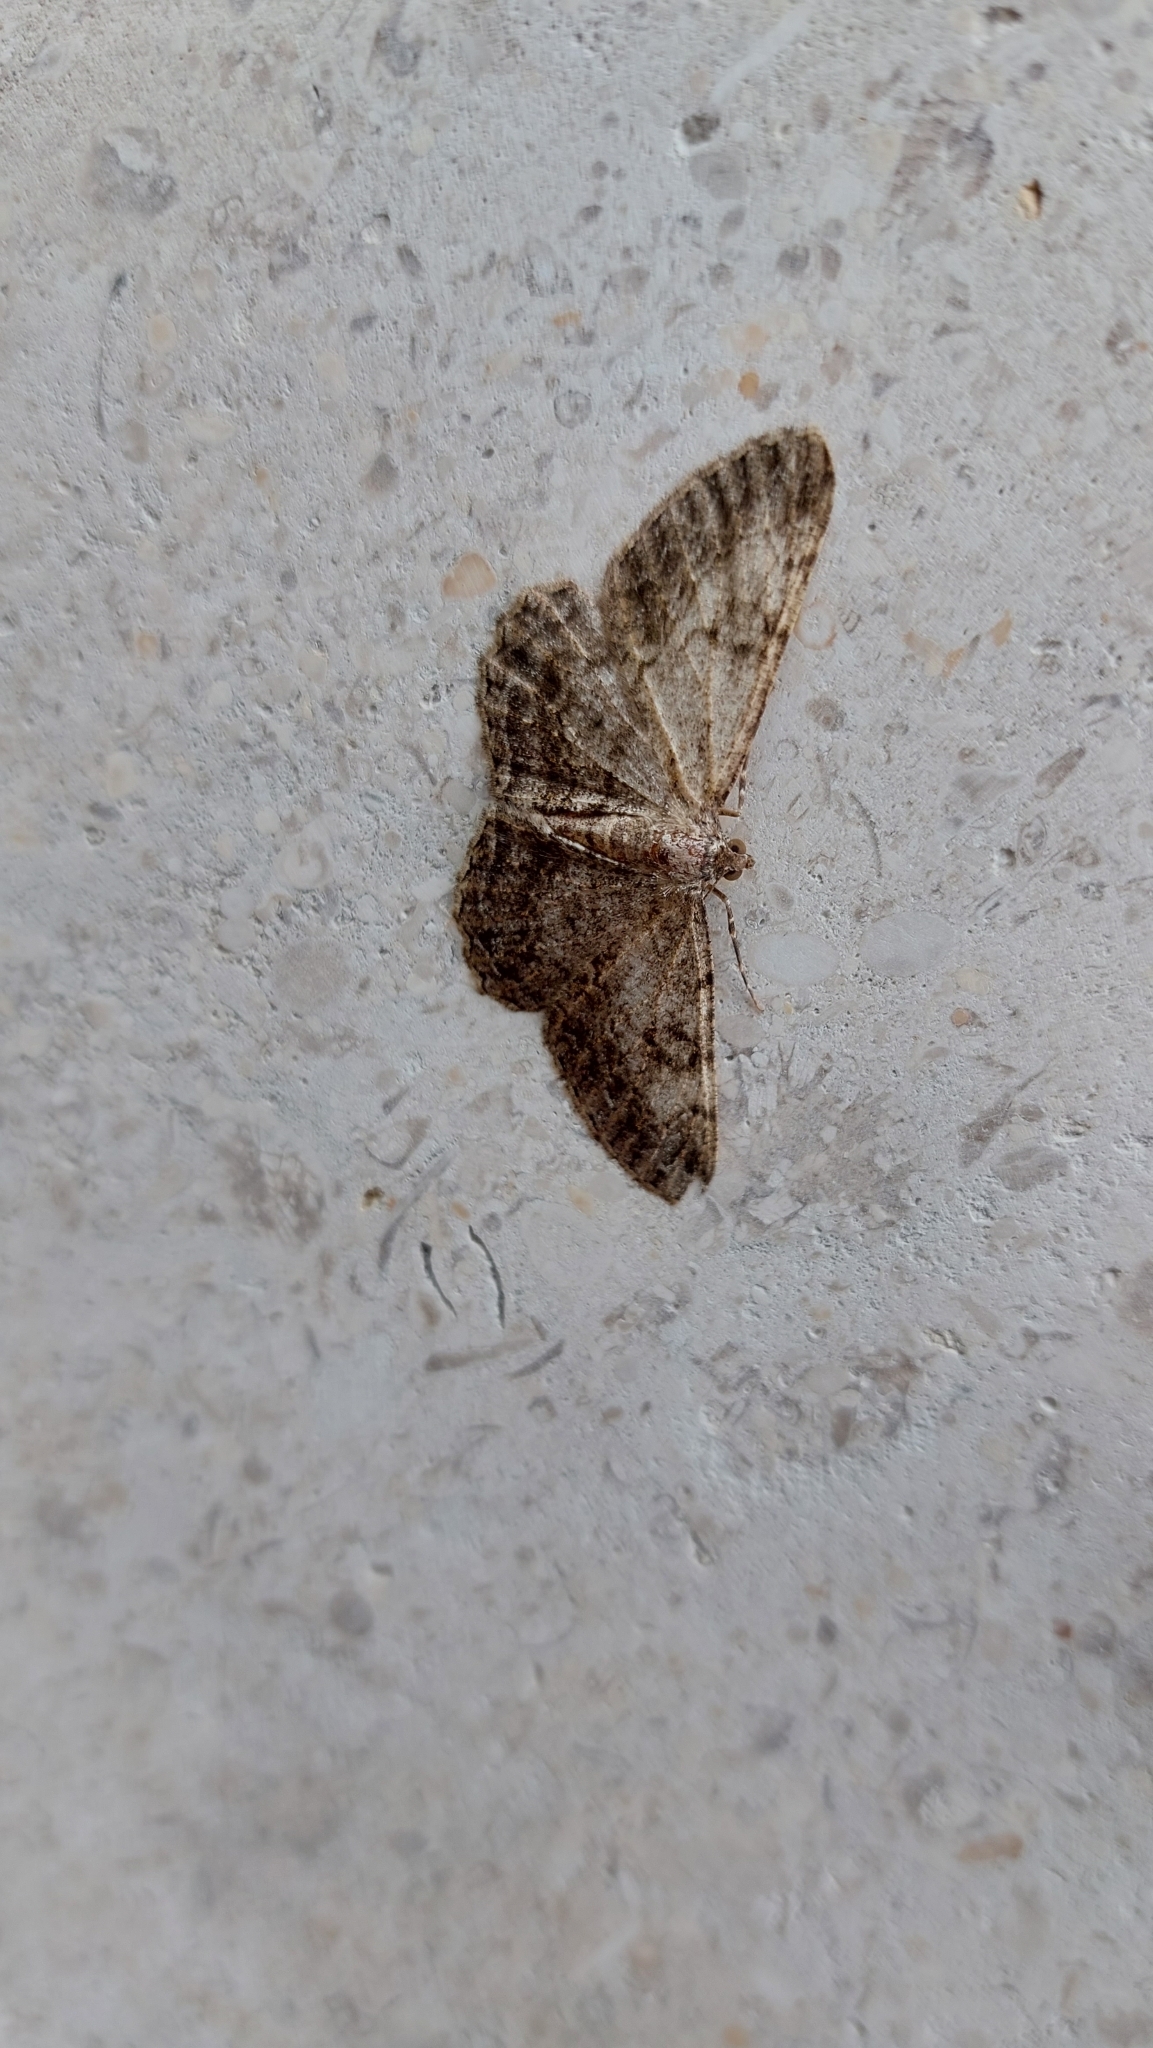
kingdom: Animalia
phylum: Arthropoda
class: Insecta
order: Lepidoptera
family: Geometridae
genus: Peribatodes
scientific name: Peribatodes rhomboidaria
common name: Willow beauty
